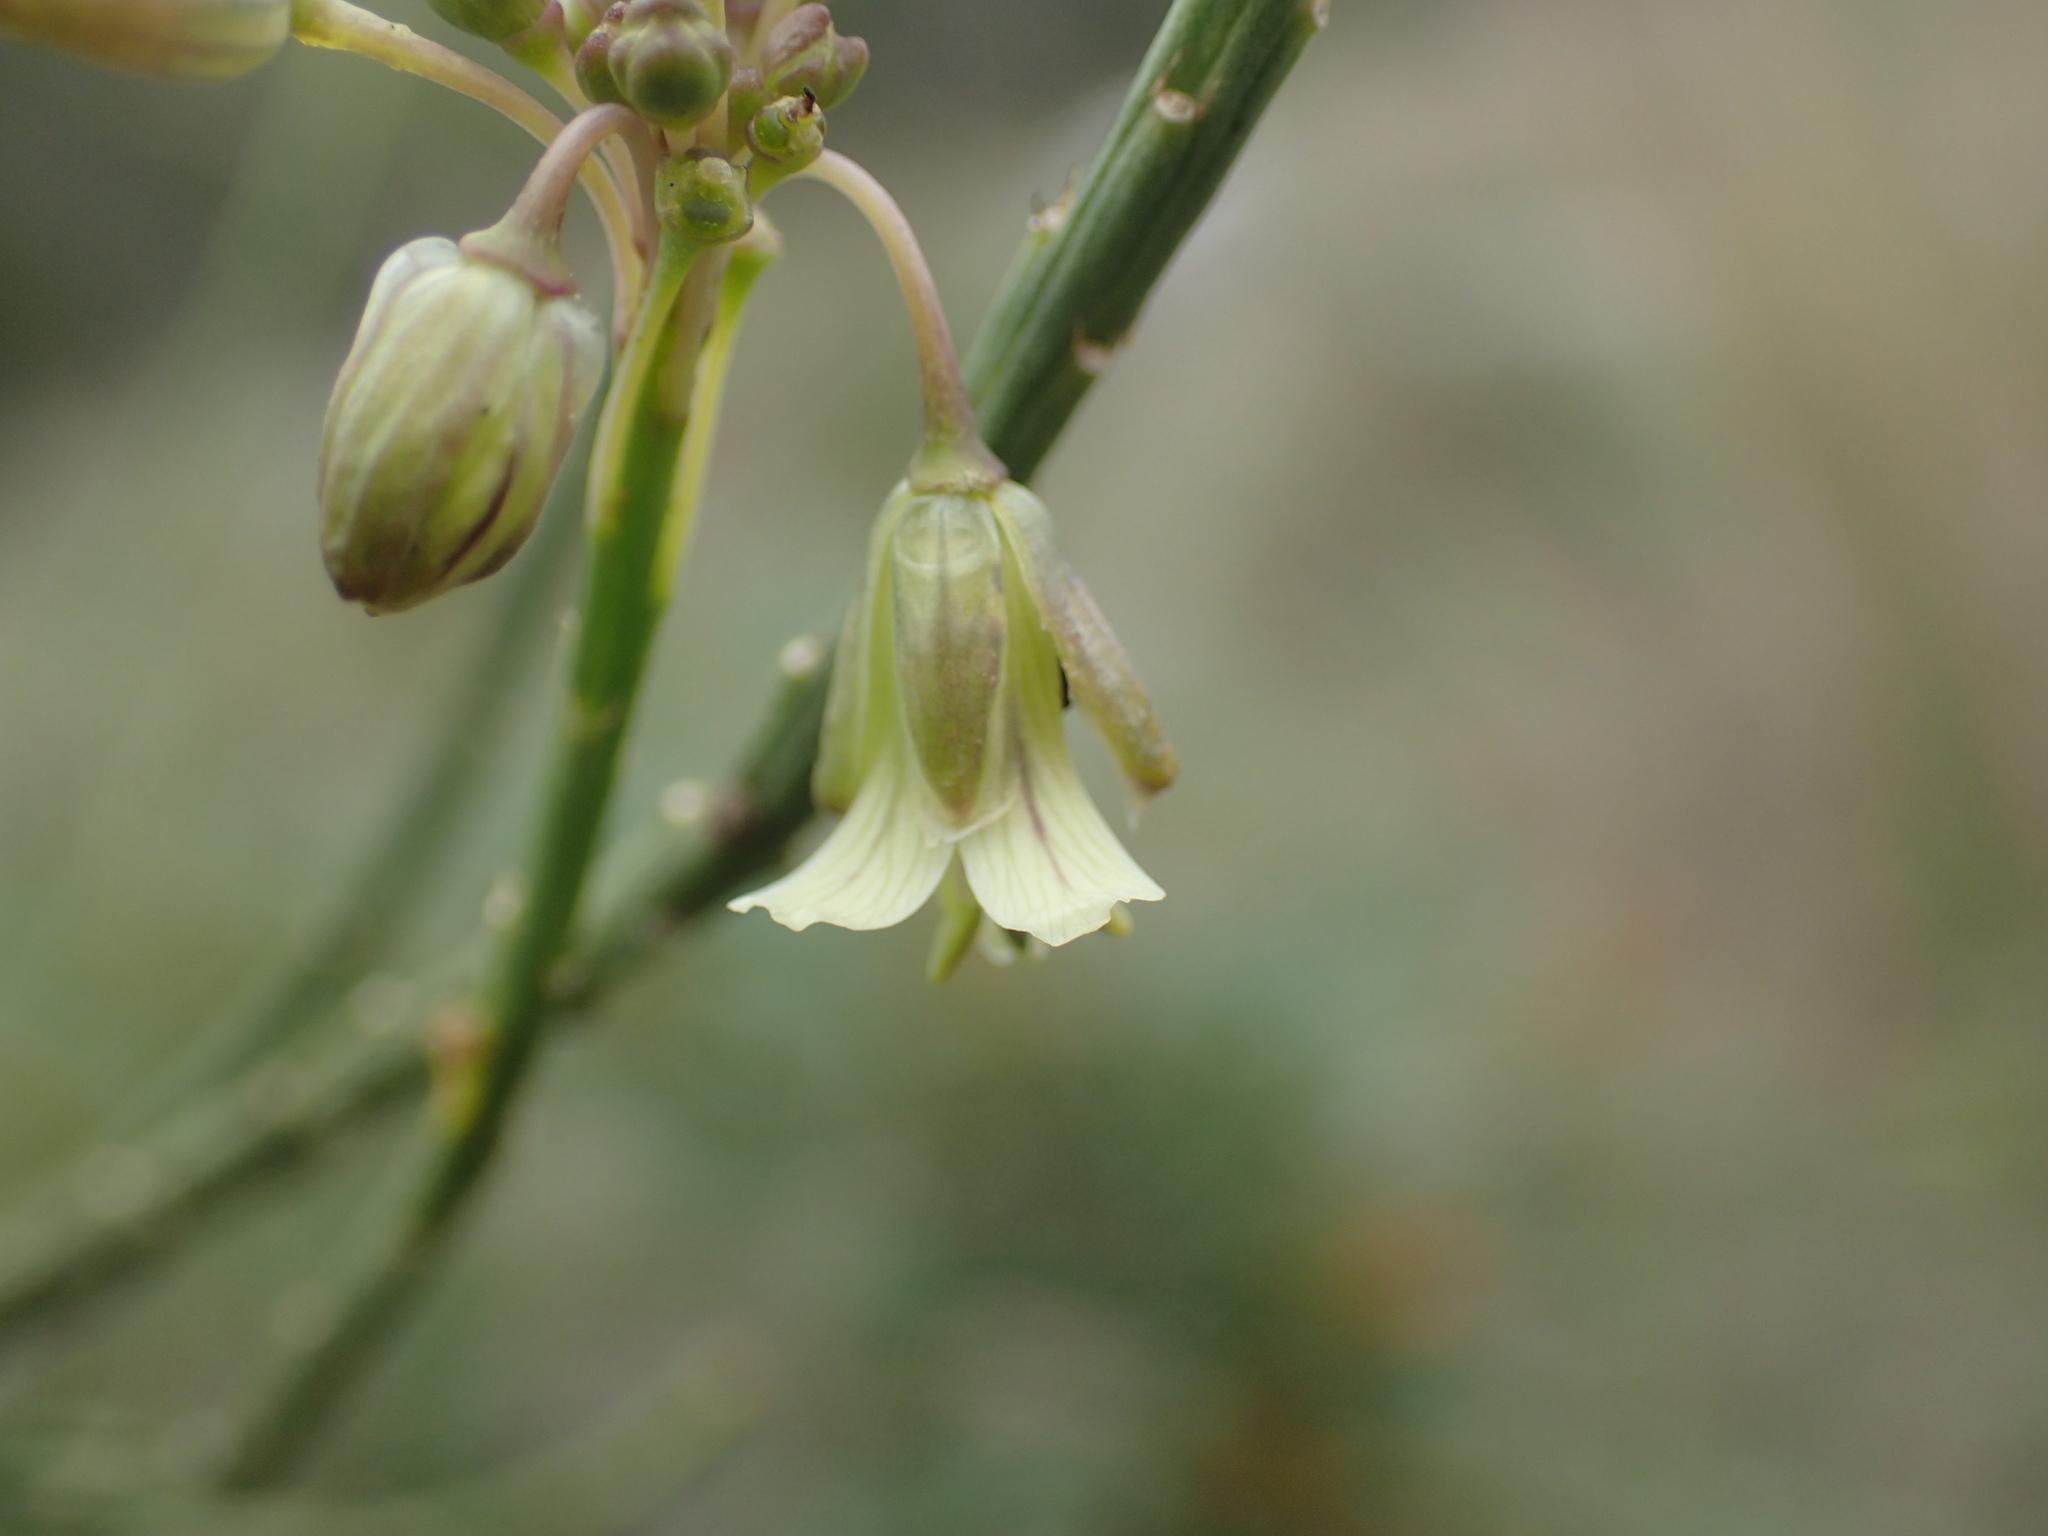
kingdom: Plantae
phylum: Tracheophyta
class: Magnoliopsida
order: Brassicales
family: Brassicaceae
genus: Heliophila
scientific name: Heliophila elongata
